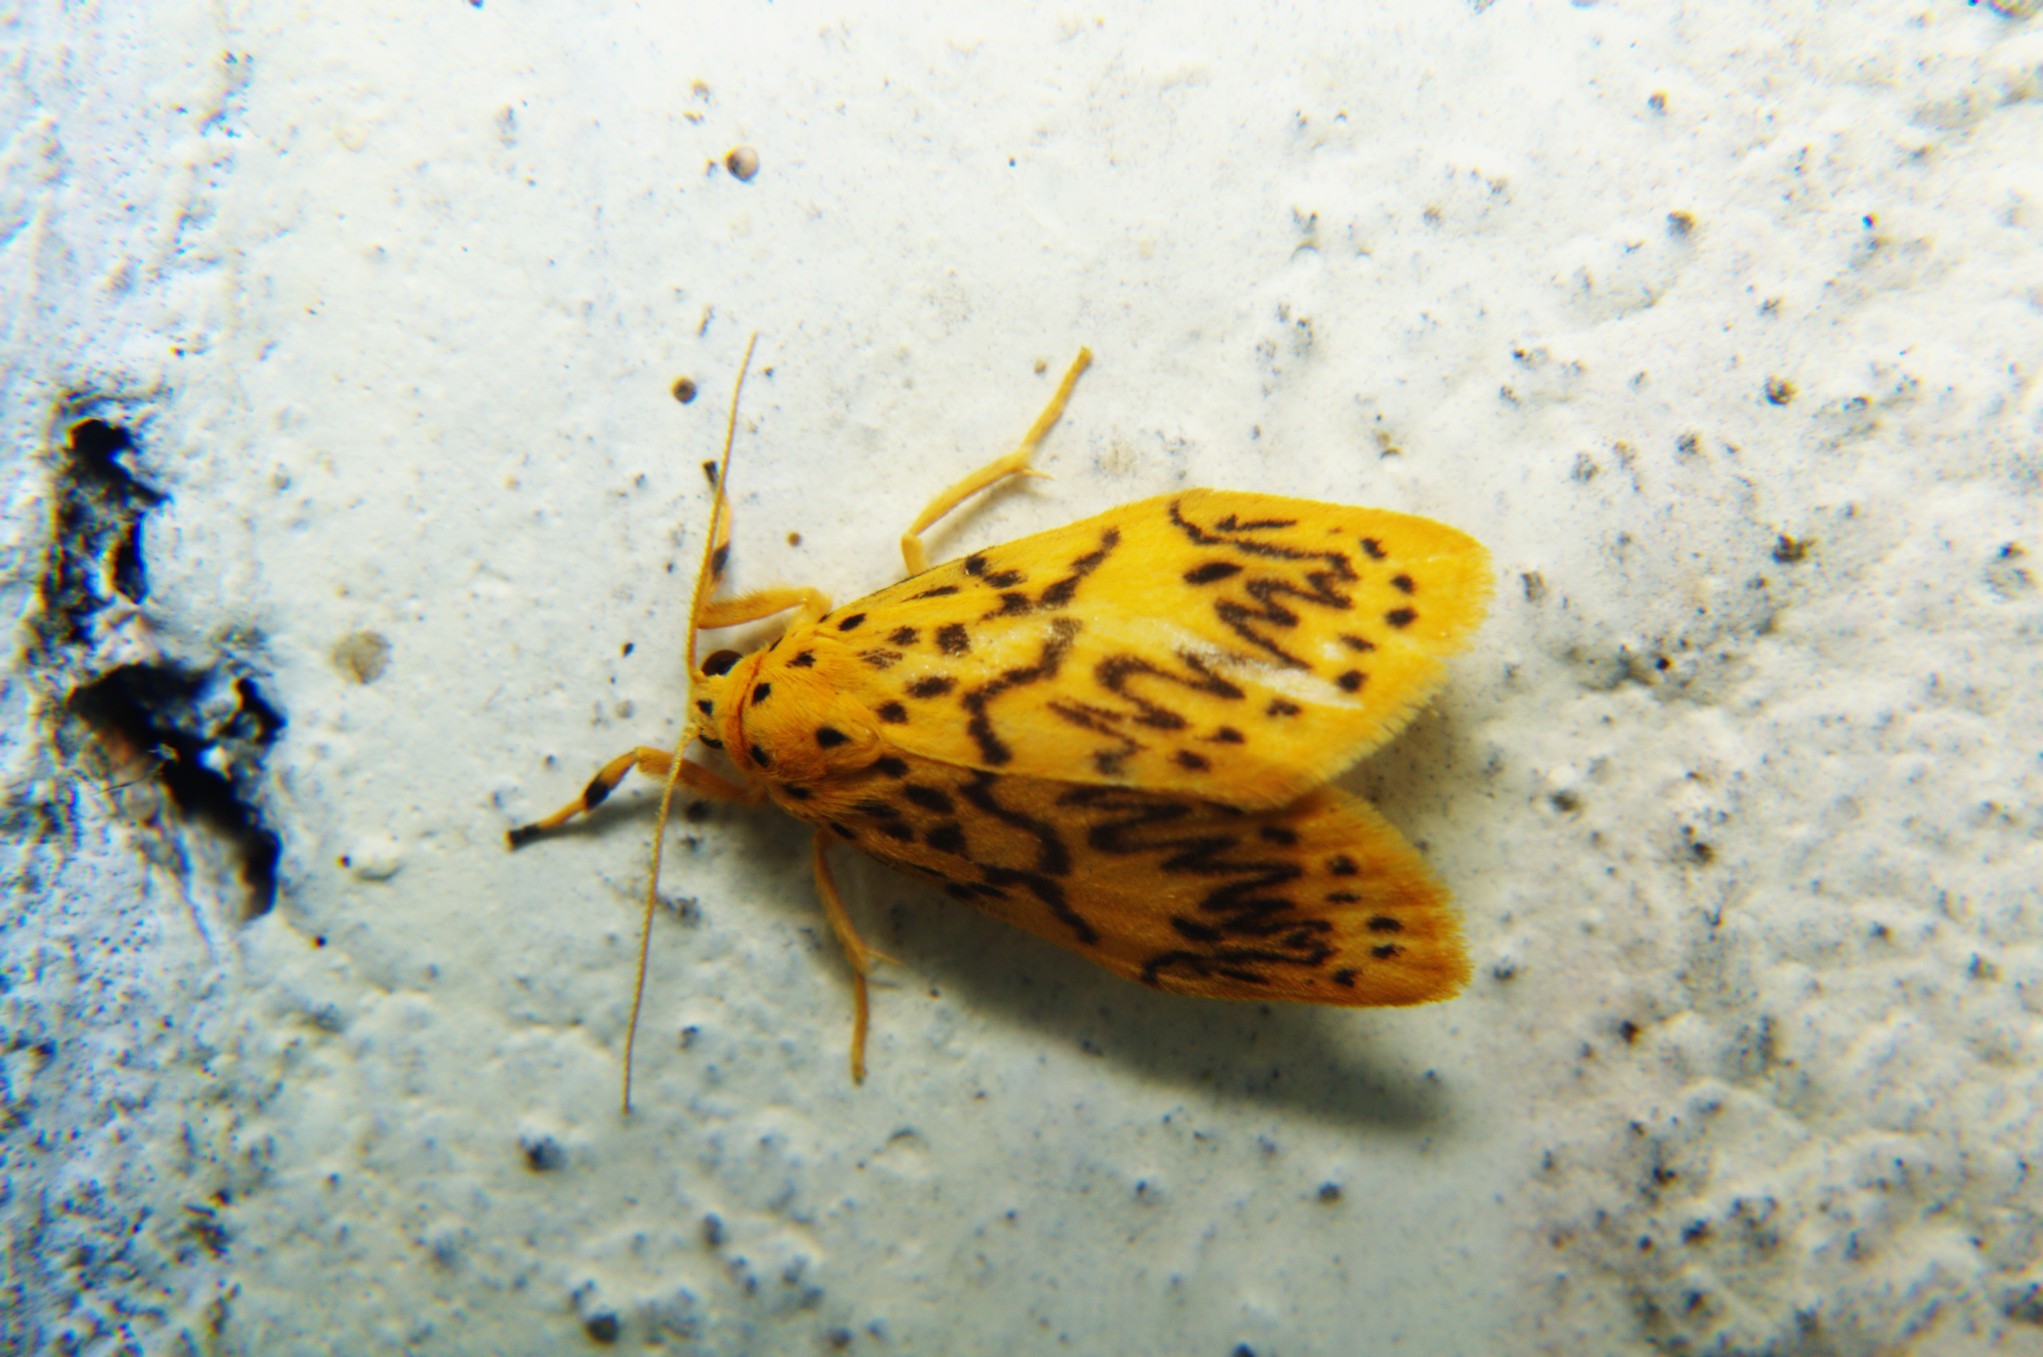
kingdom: Animalia
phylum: Arthropoda
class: Insecta
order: Lepidoptera
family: Erebidae
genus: Miltochrista
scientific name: Miltochrista obliquilinea
